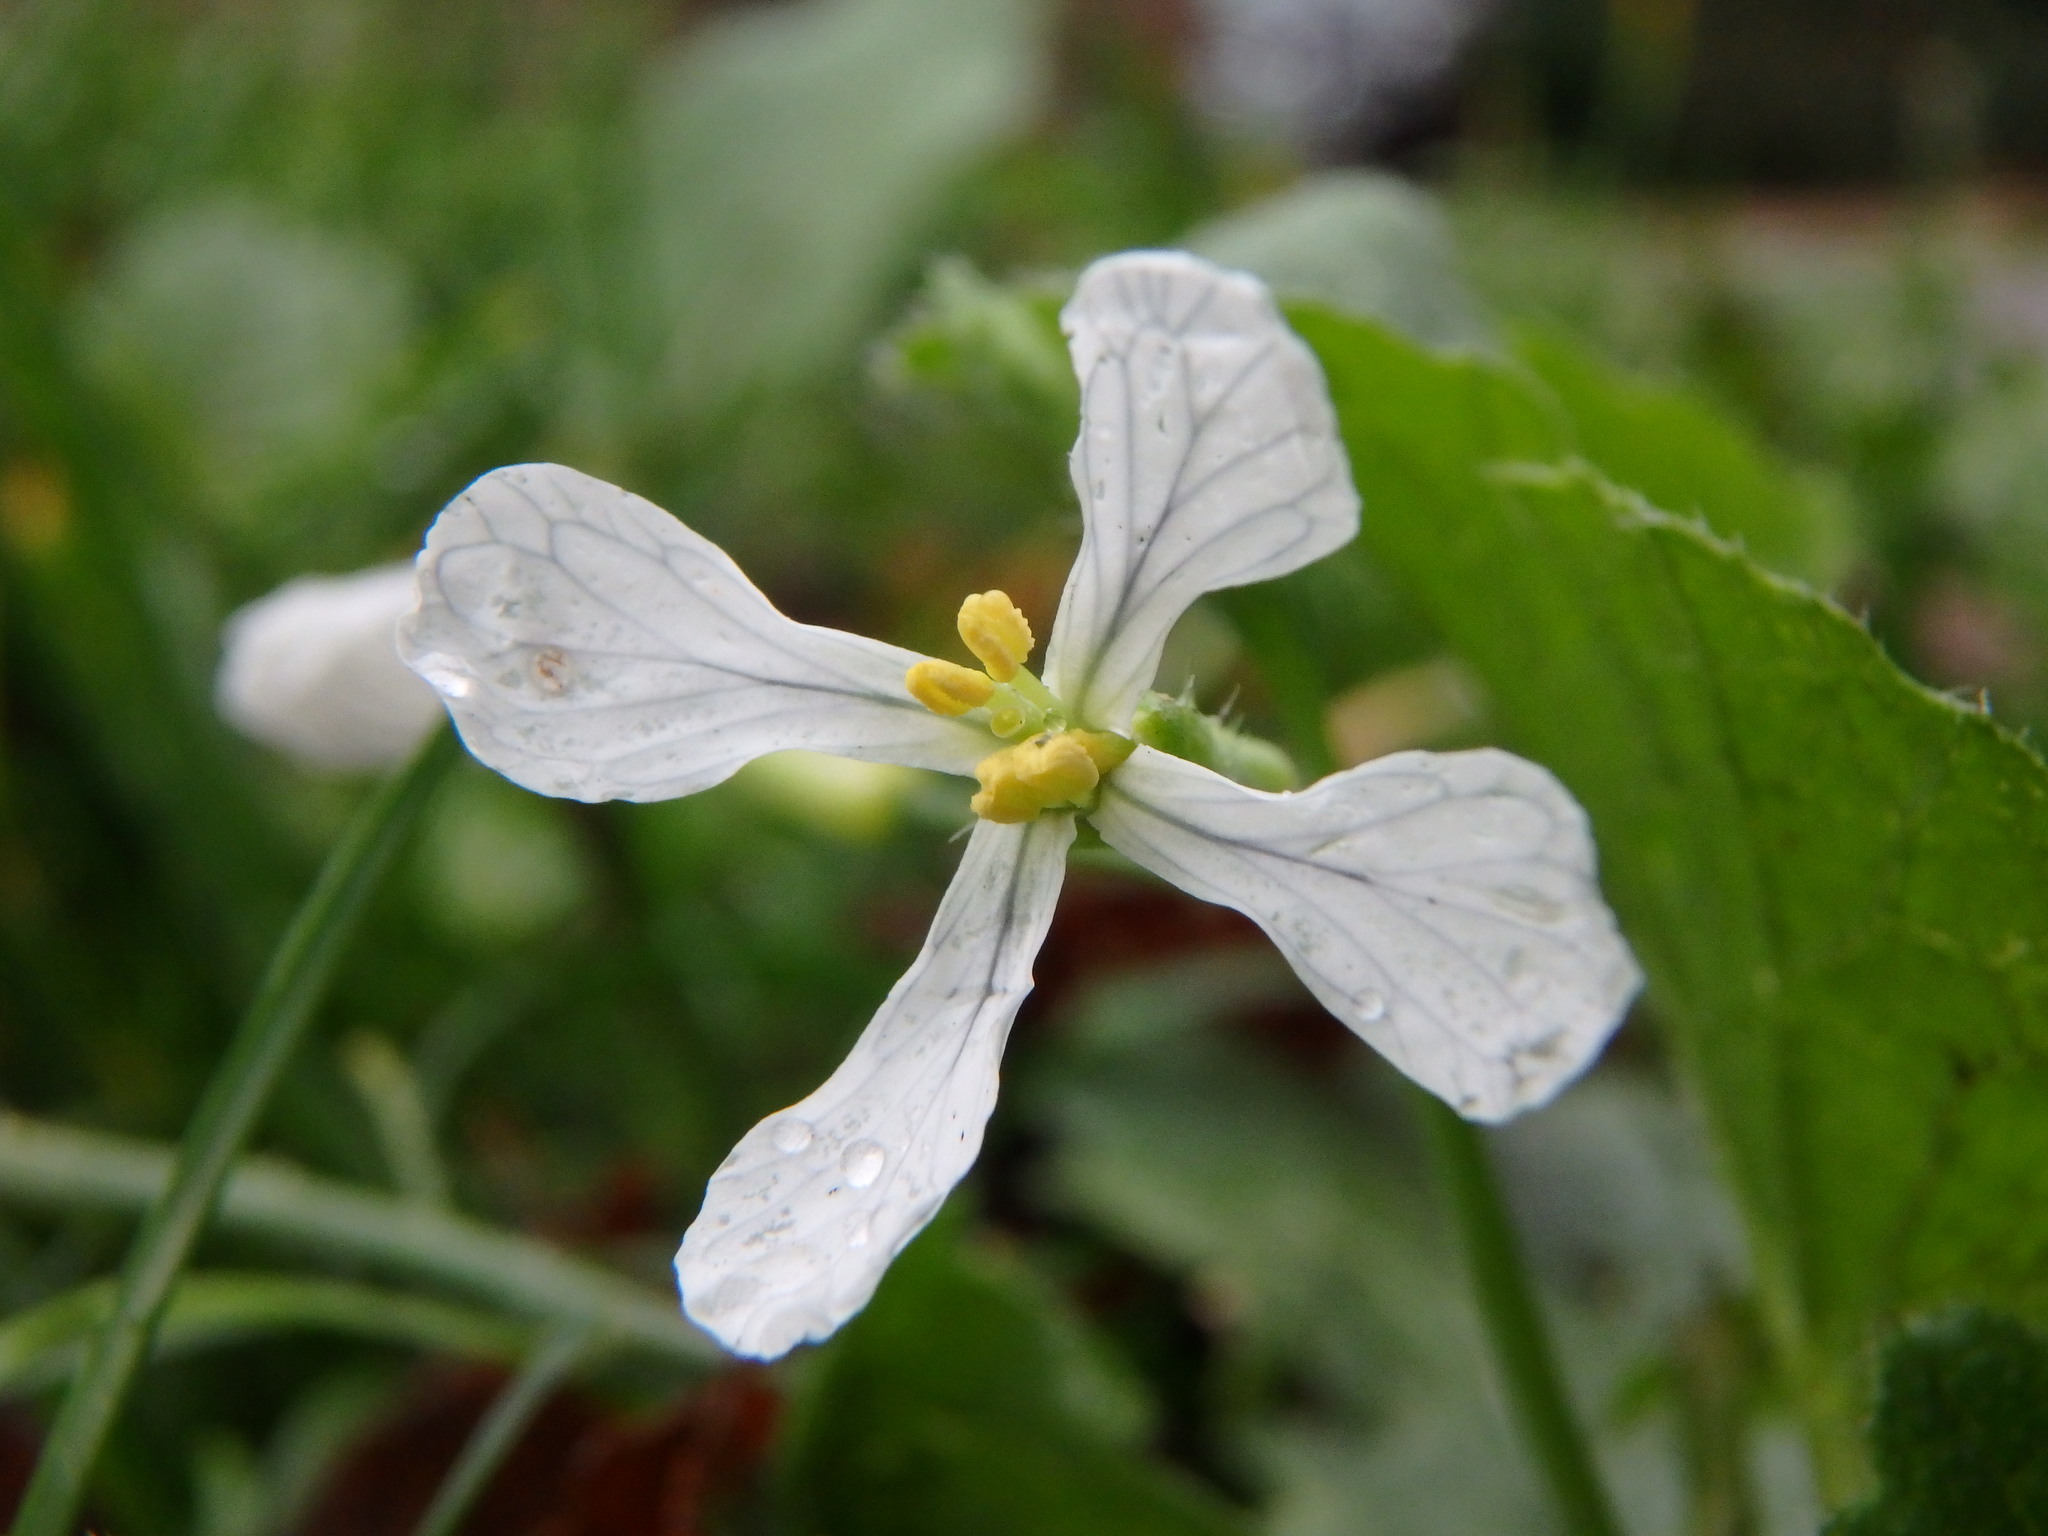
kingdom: Plantae
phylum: Tracheophyta
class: Magnoliopsida
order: Brassicales
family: Brassicaceae
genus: Raphanus
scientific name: Raphanus raphanistrum
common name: Wild radish
